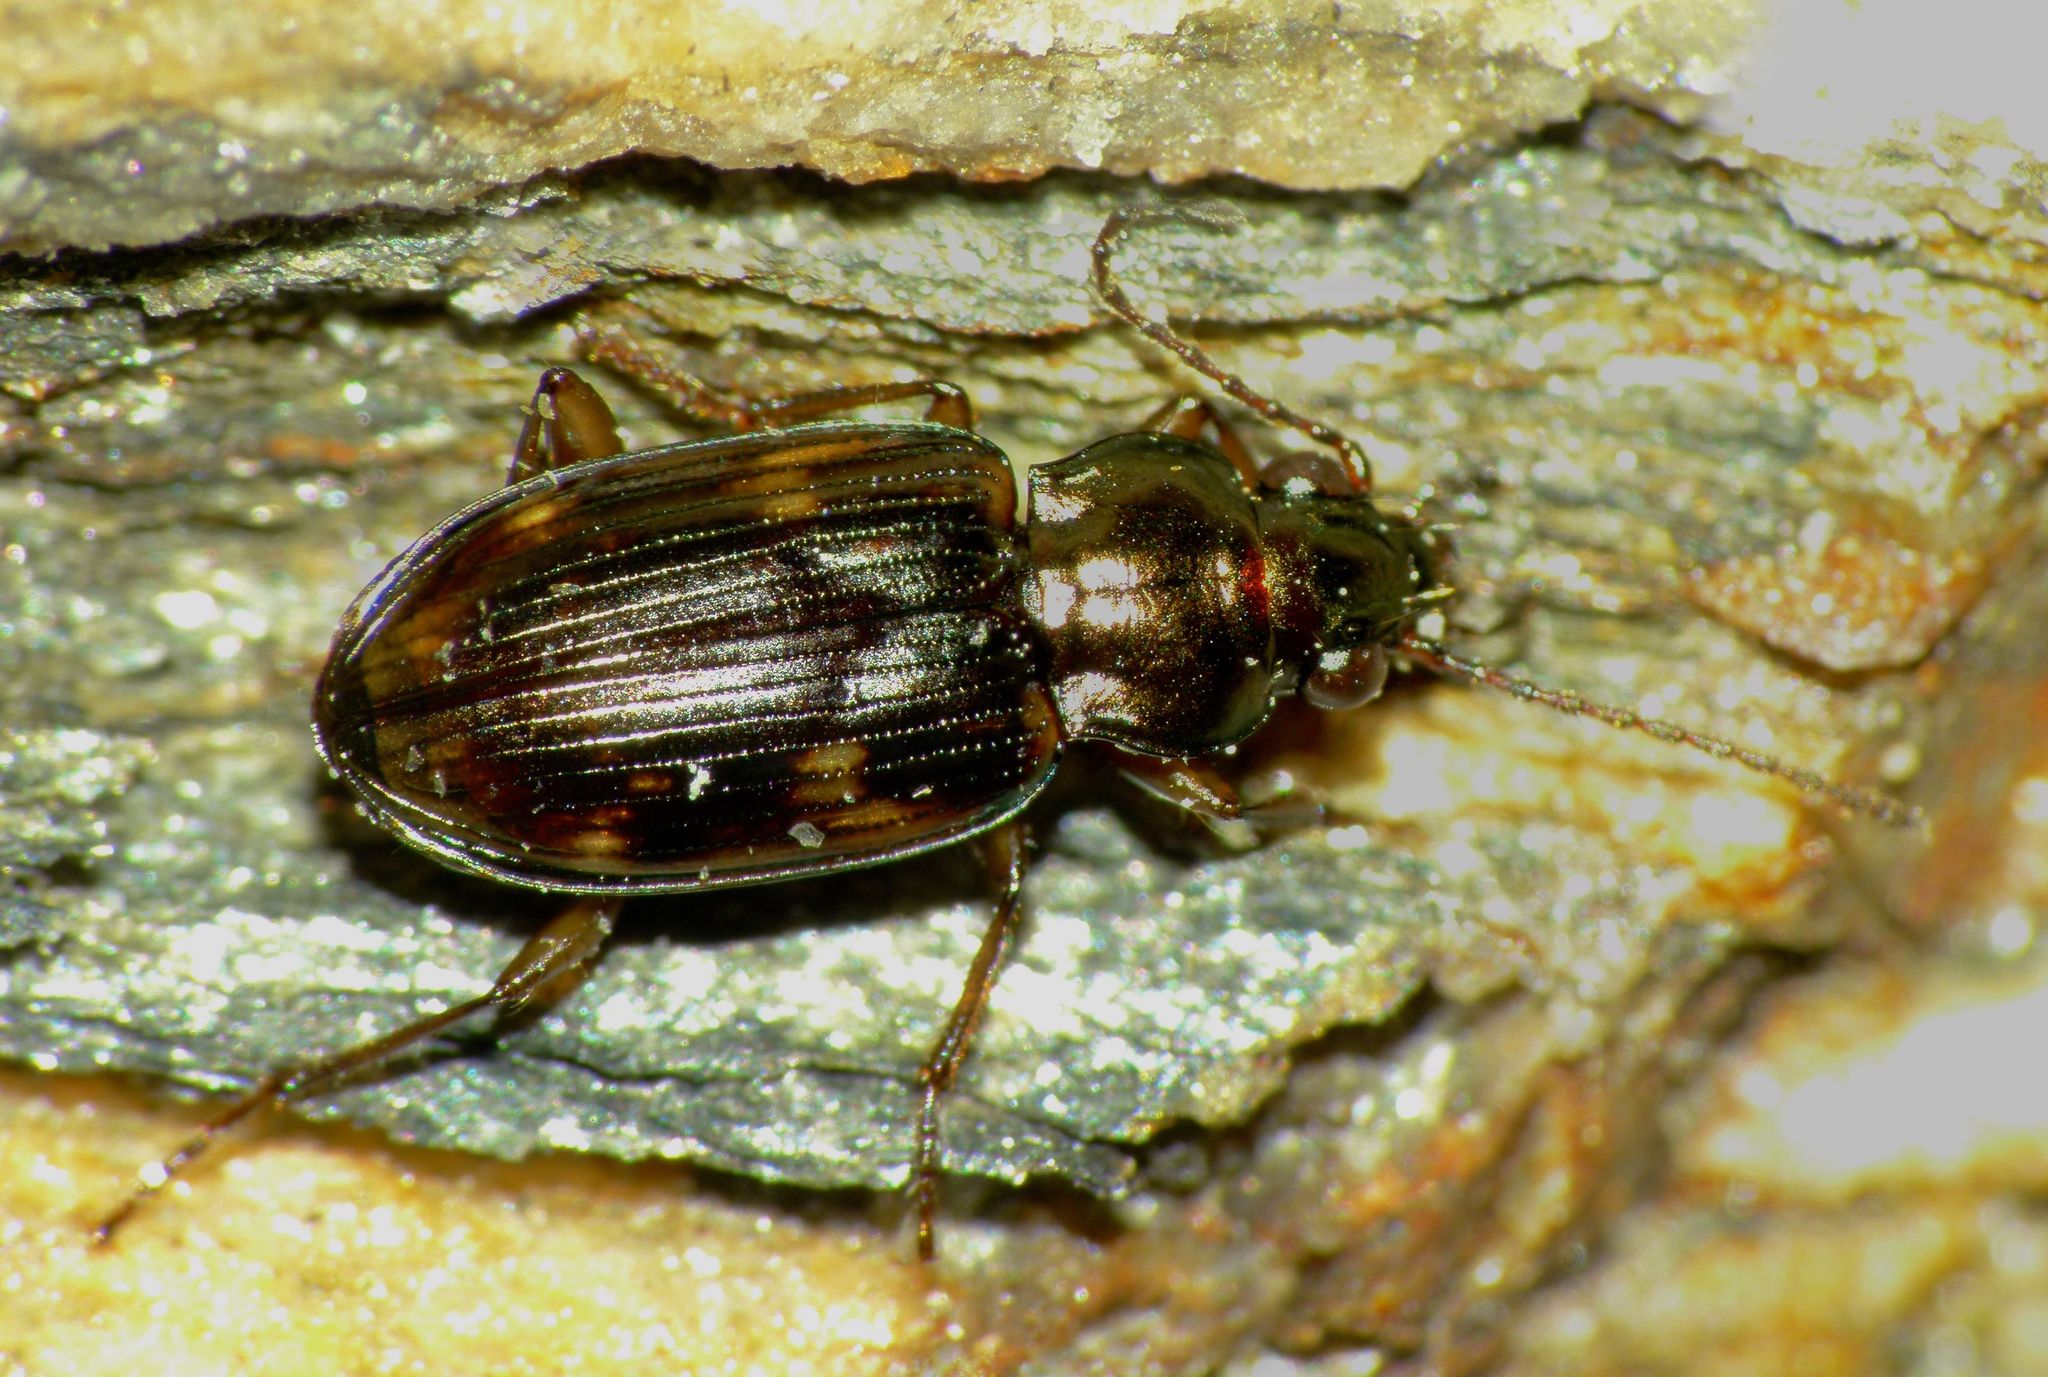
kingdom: Animalia
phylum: Arthropoda
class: Insecta
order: Coleoptera
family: Carabidae
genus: Bembidion
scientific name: Bembidion brullei
